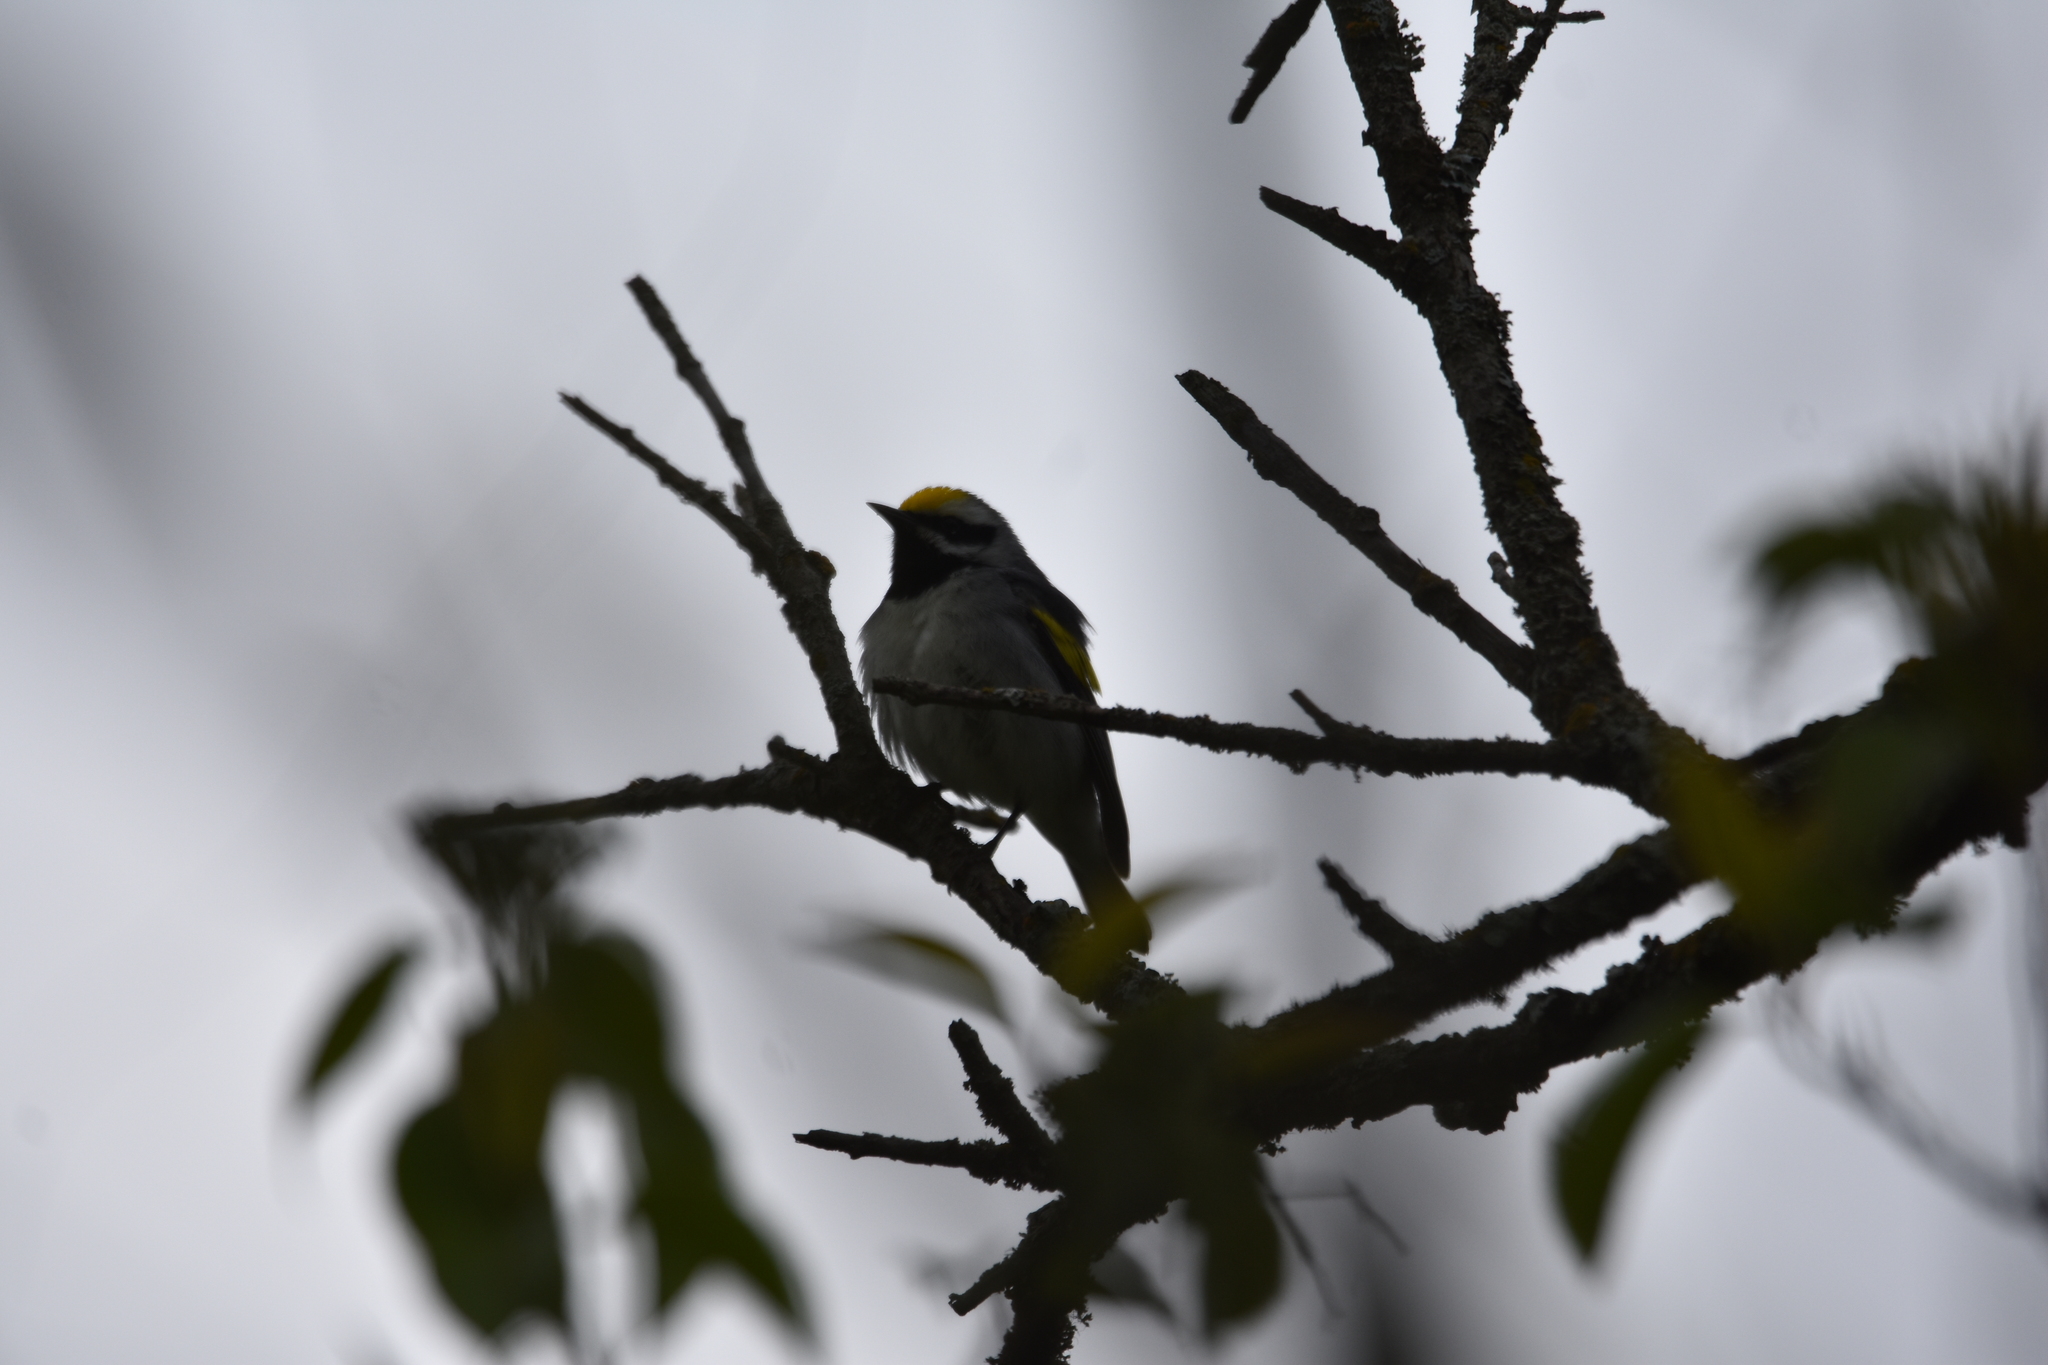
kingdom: Animalia
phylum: Chordata
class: Aves
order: Passeriformes
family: Parulidae
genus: Vermivora
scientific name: Vermivora chrysoptera
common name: Golden-winged warbler
